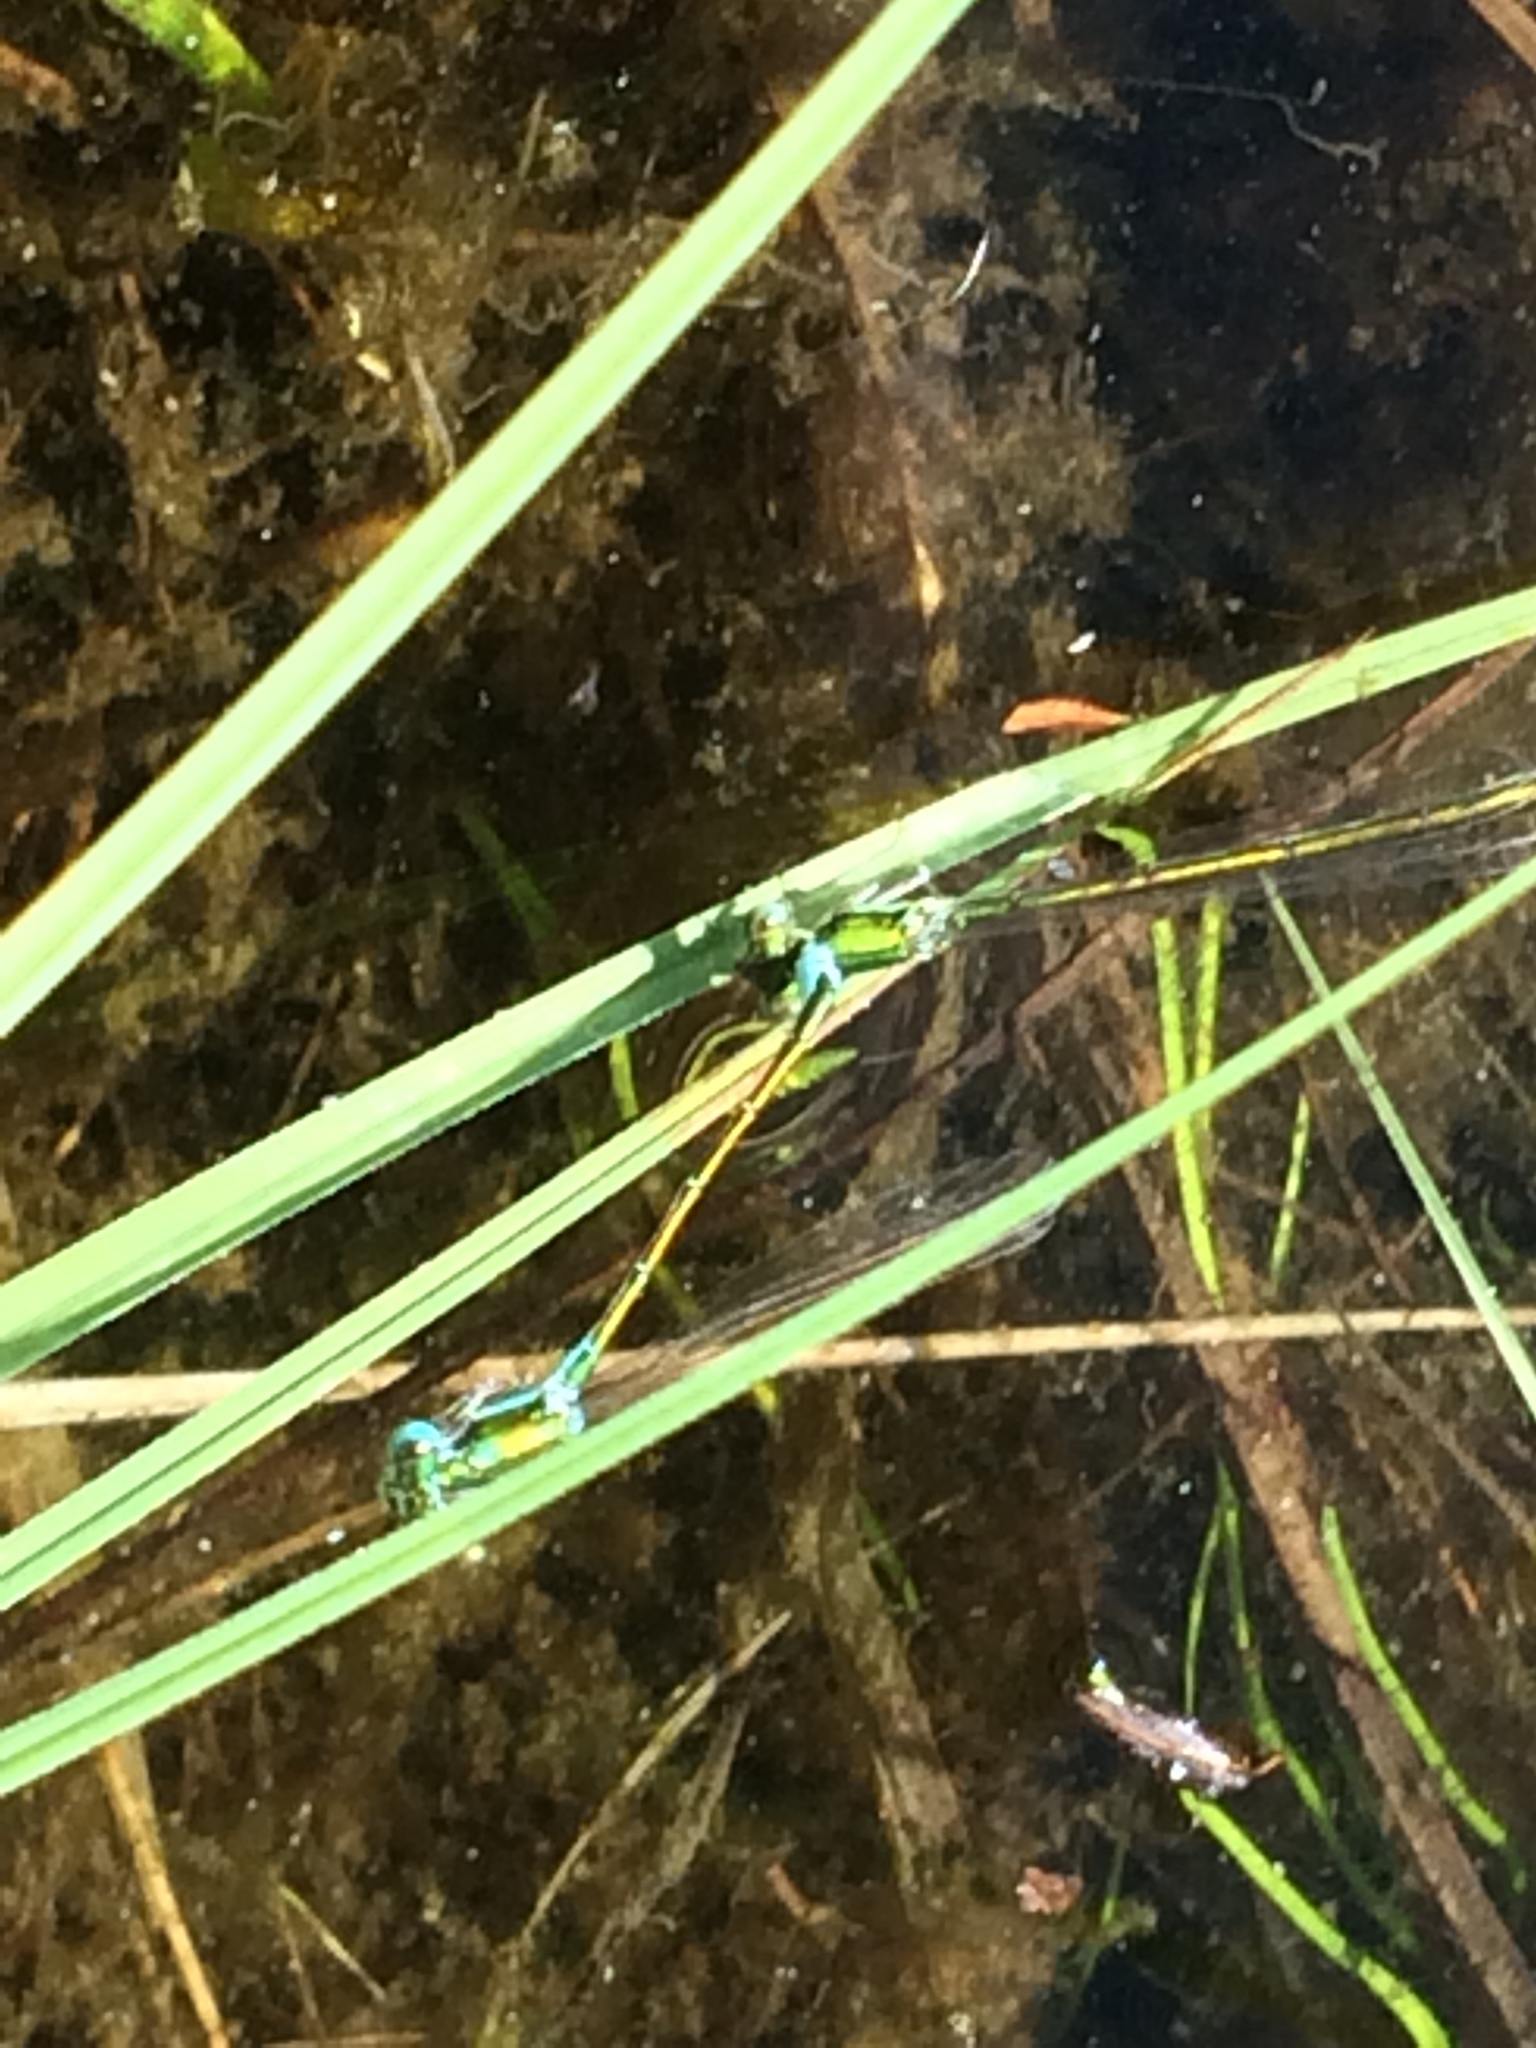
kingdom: Animalia
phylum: Arthropoda
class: Insecta
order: Odonata
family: Coenagrionidae
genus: Nehalennia
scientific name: Nehalennia irene
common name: Sedge sprite
